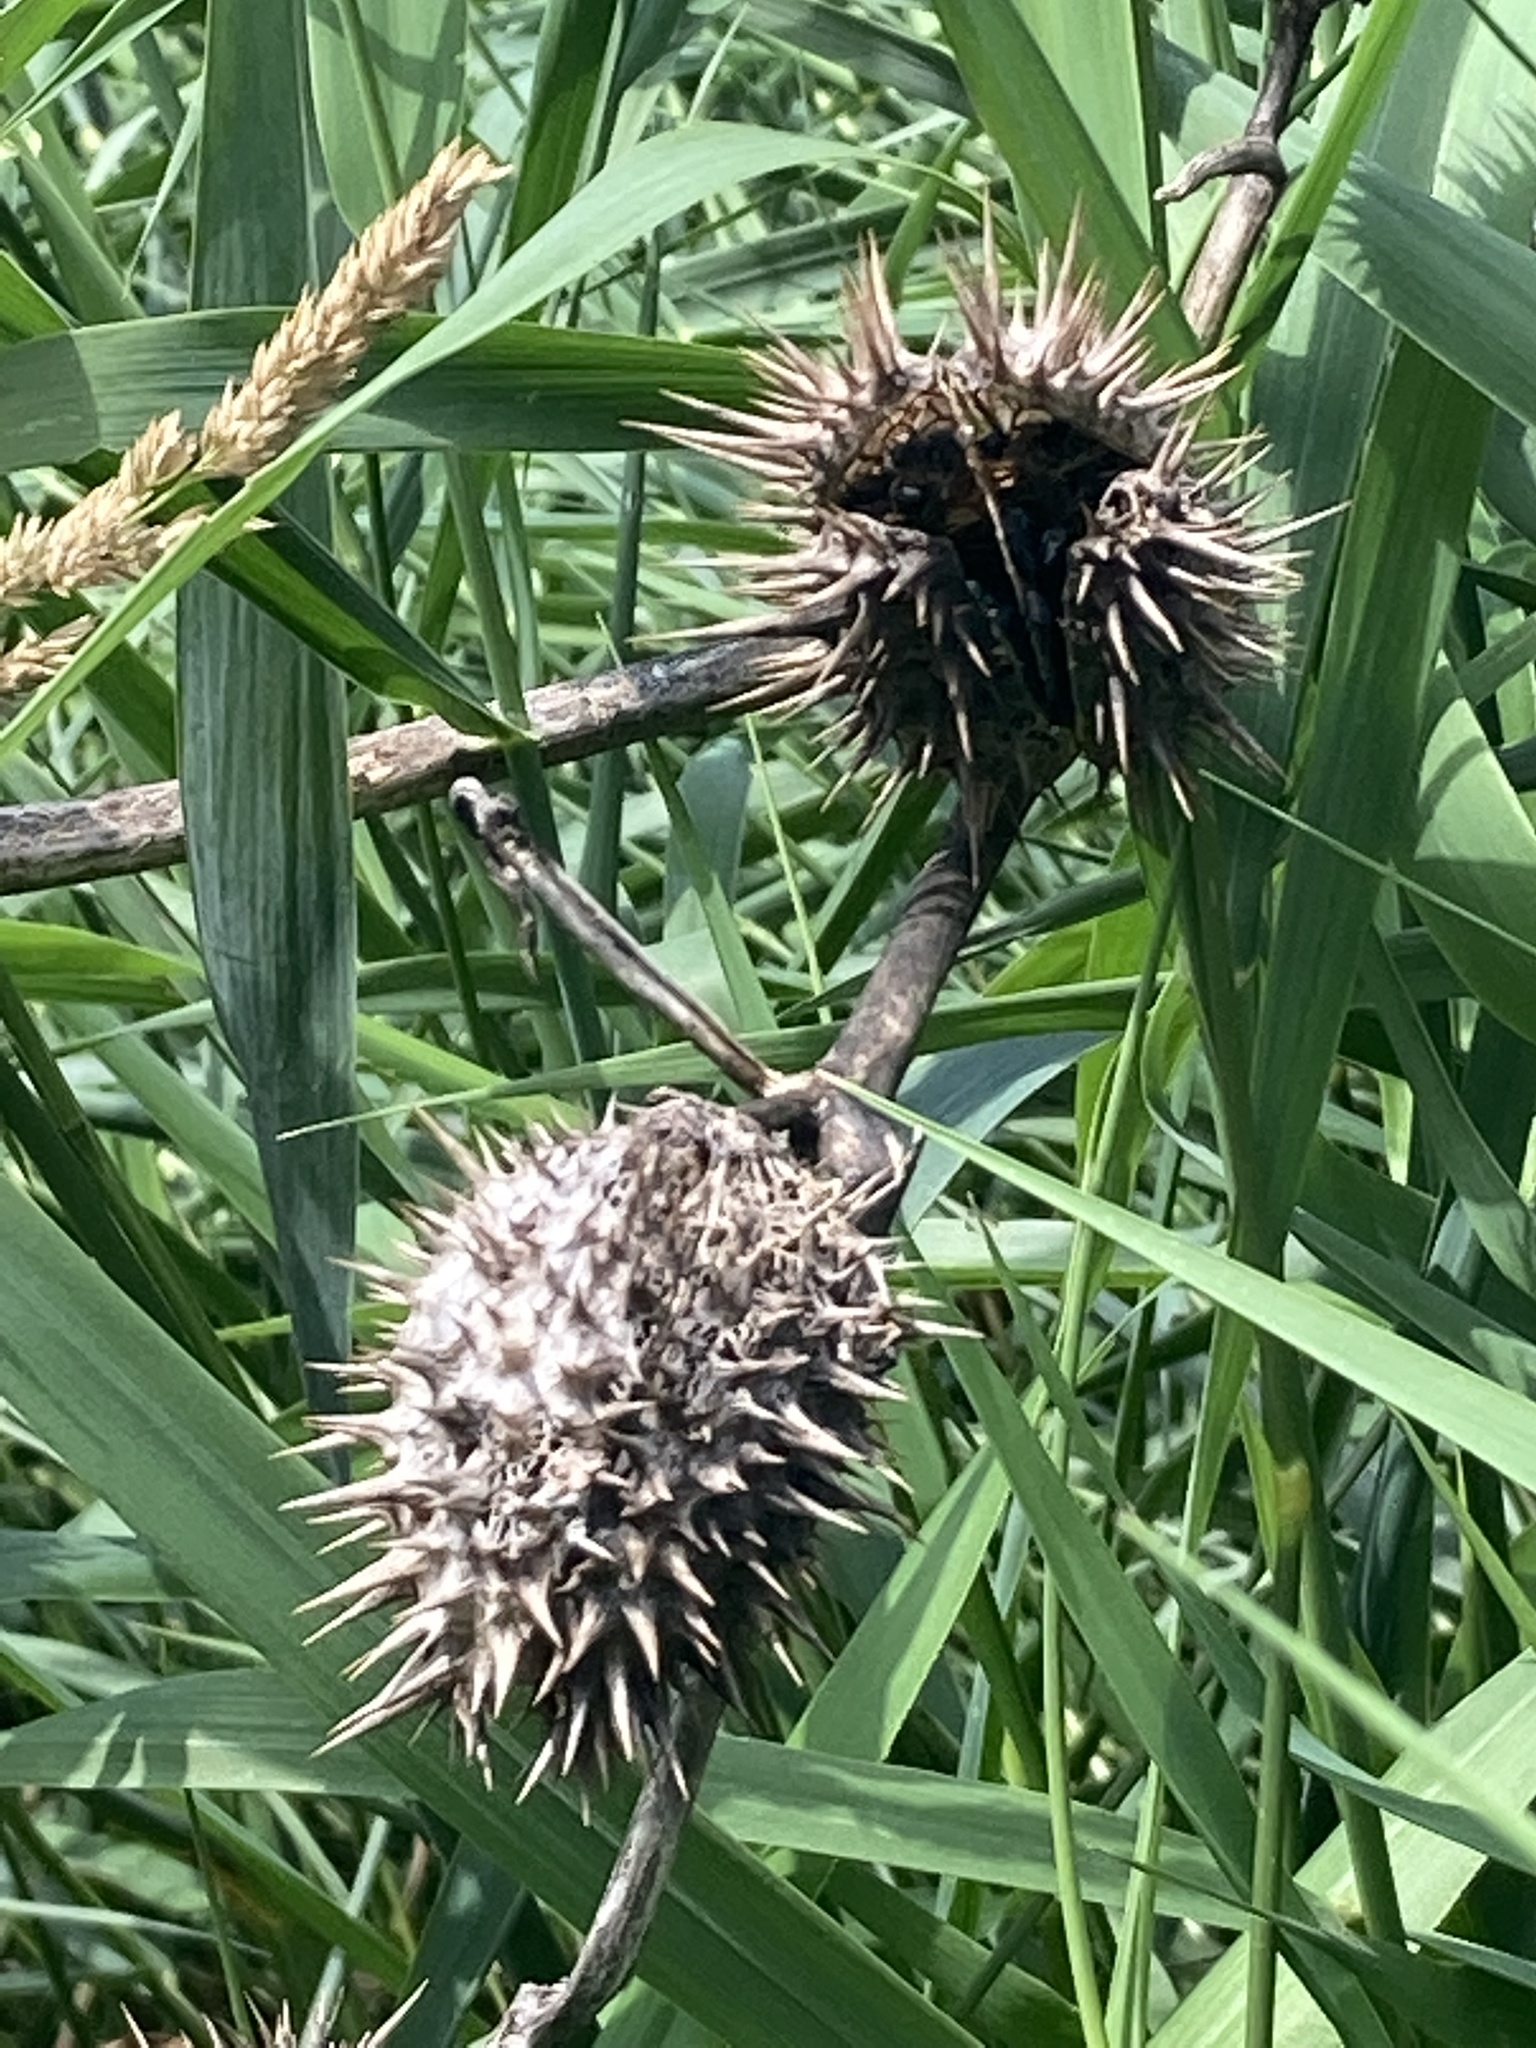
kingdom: Plantae
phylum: Tracheophyta
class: Magnoliopsida
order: Solanales
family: Solanaceae
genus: Datura
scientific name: Datura stramonium
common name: Thorn-apple
